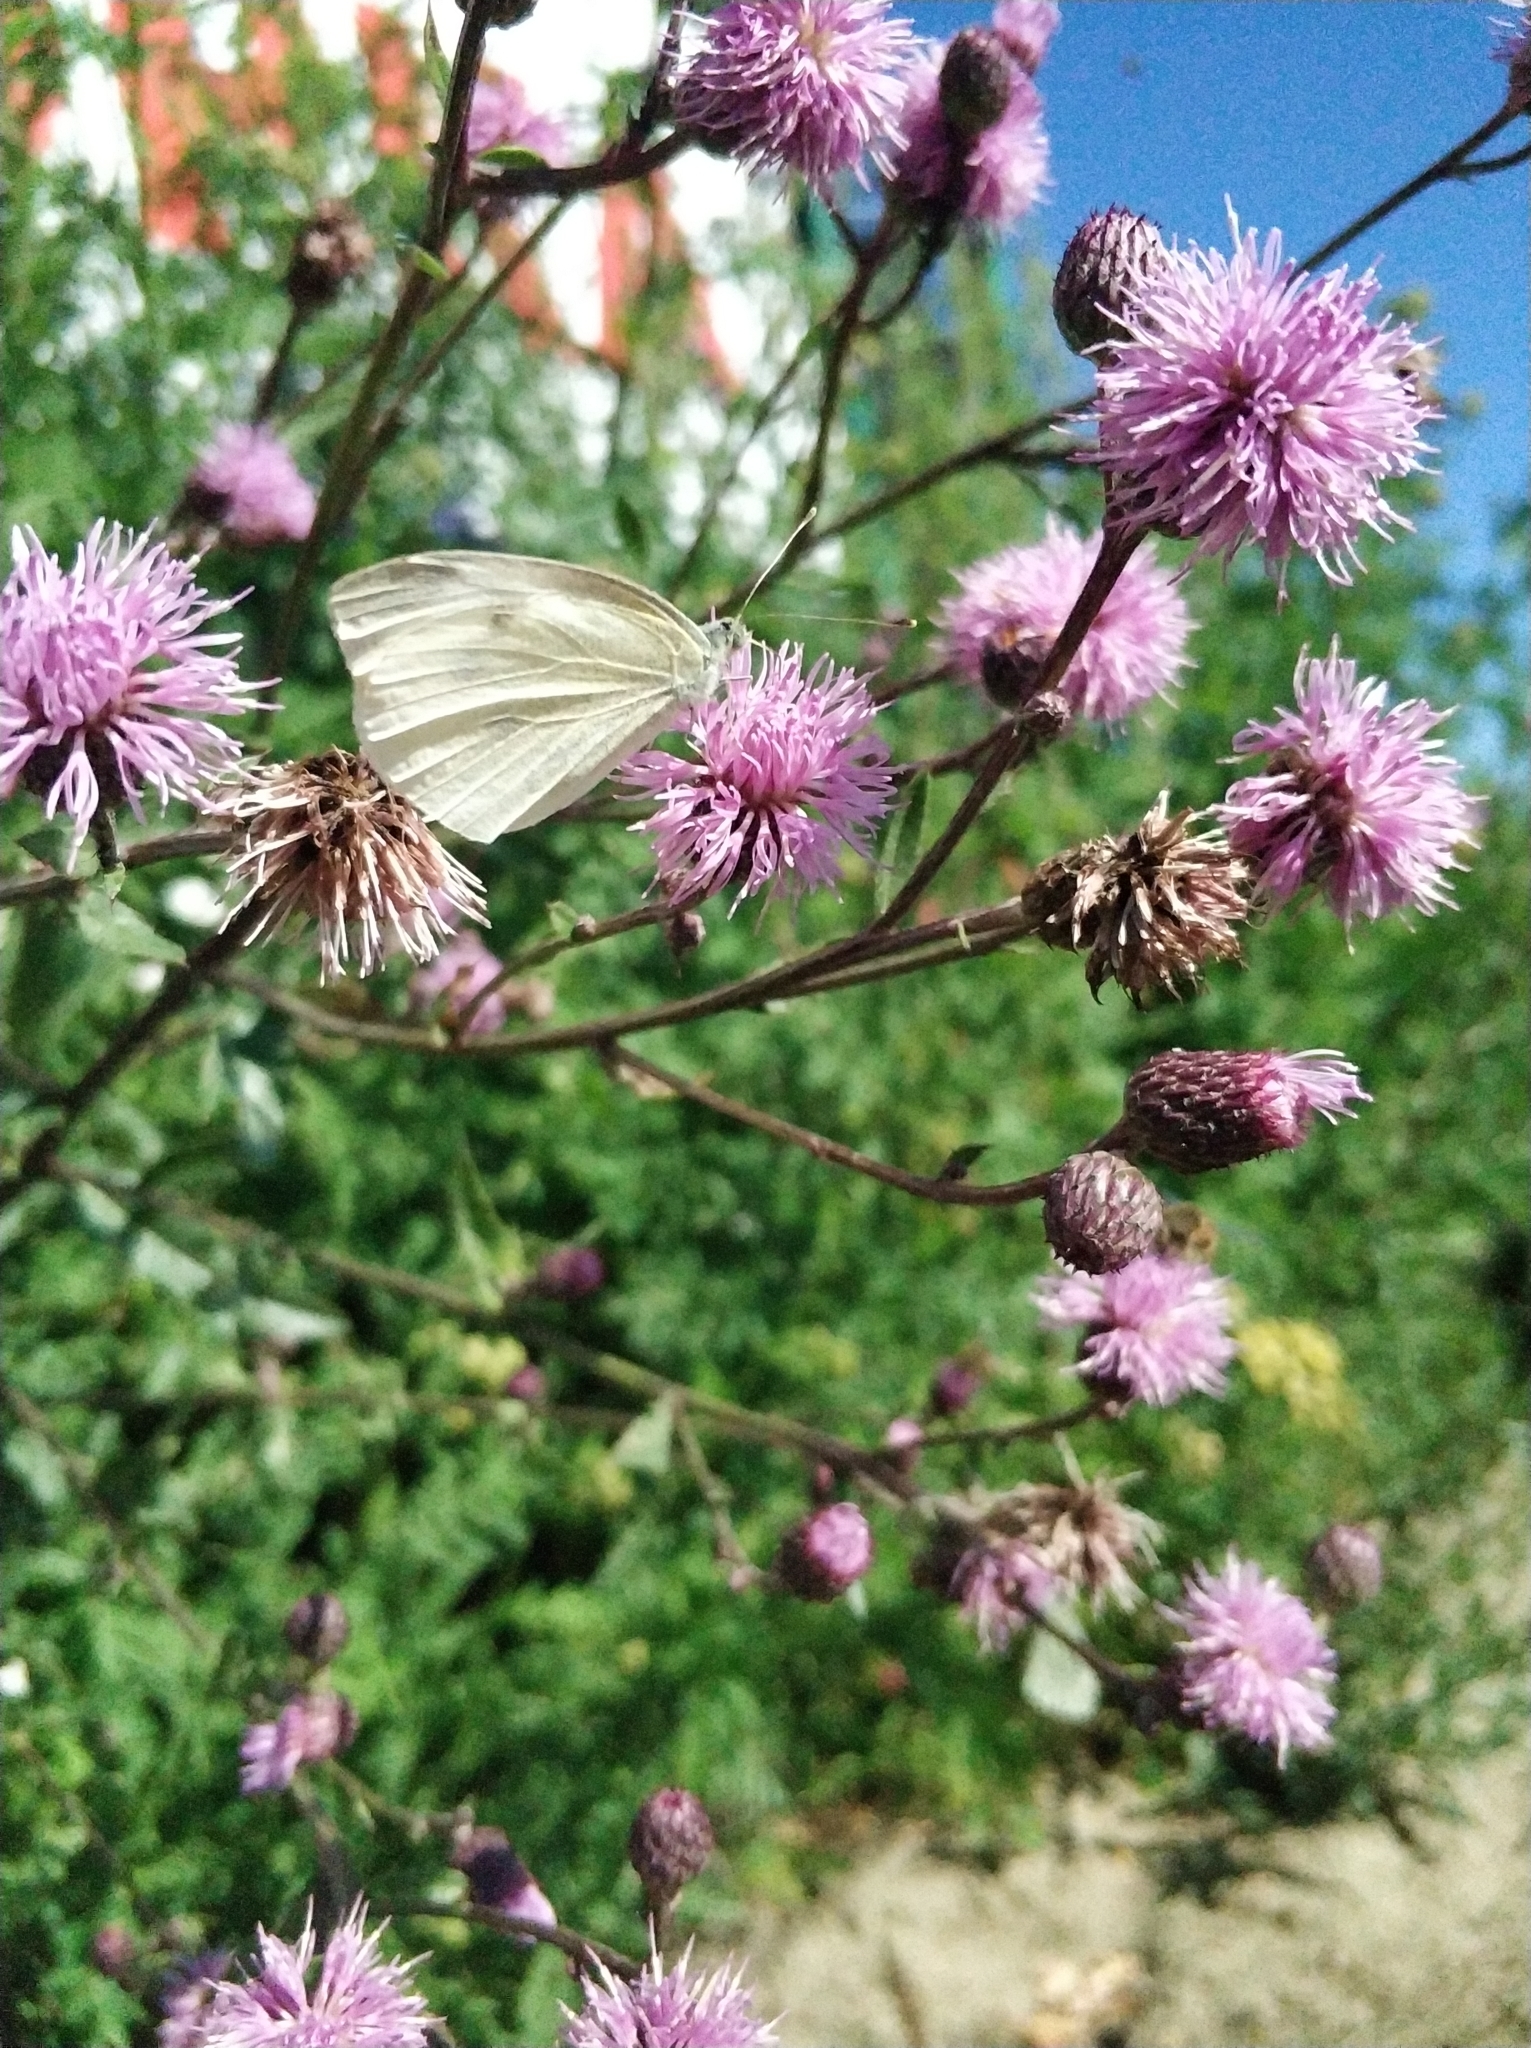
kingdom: Animalia
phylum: Arthropoda
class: Insecta
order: Lepidoptera
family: Pieridae
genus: Pieris
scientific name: Pieris napi
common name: Green-veined white
